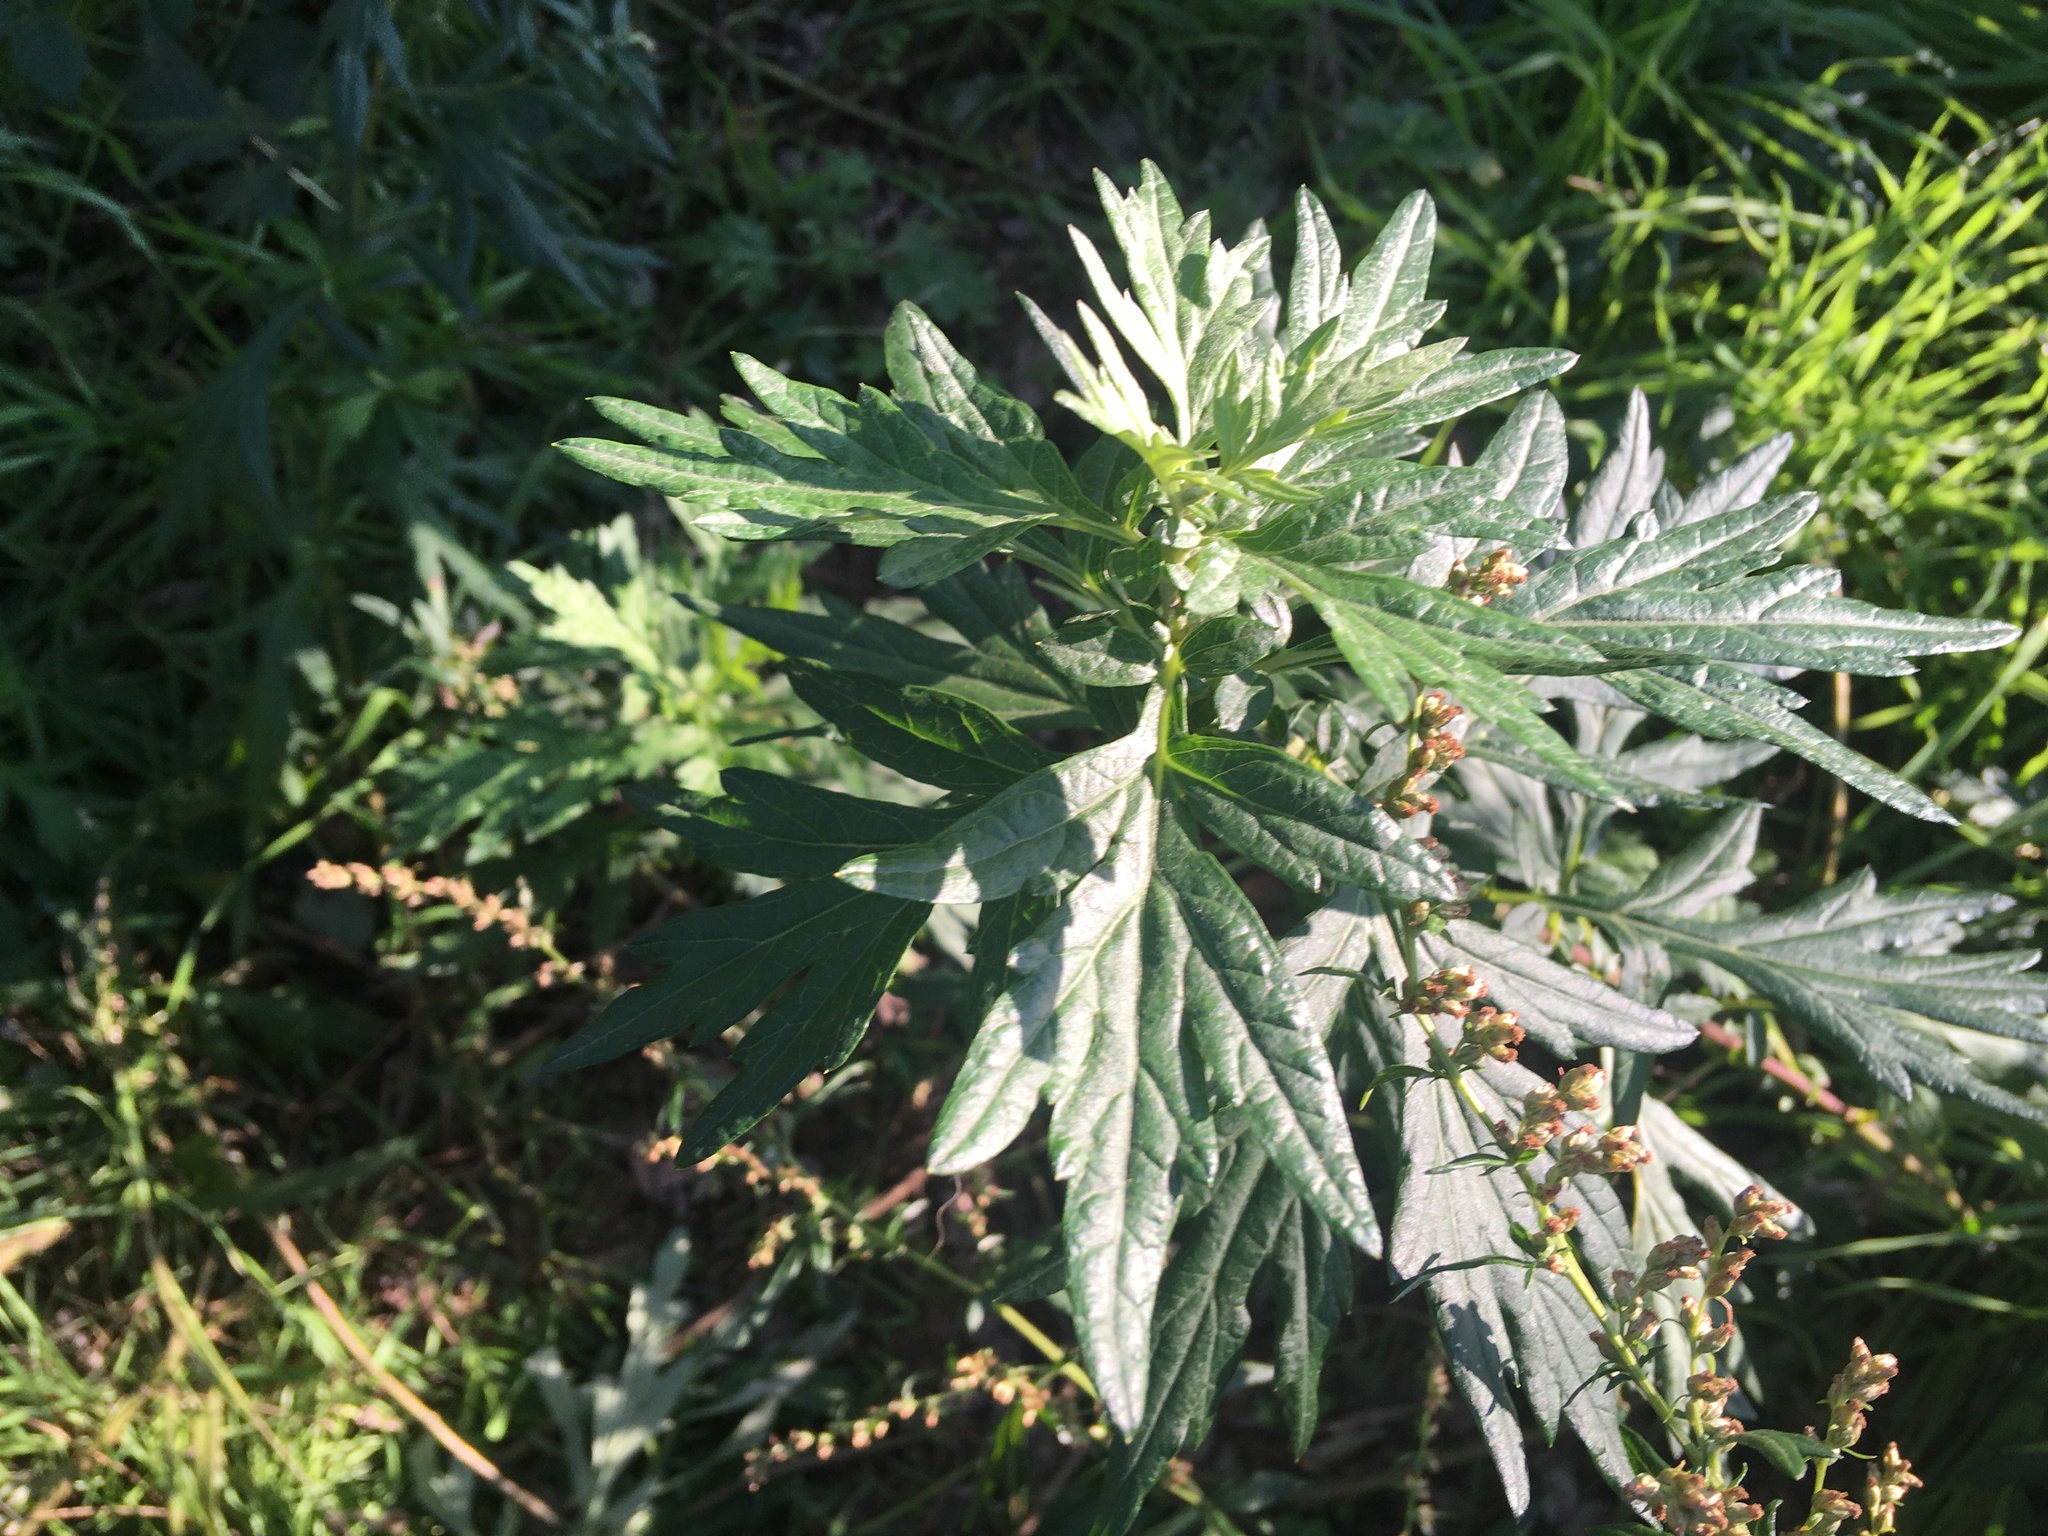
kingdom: Plantae
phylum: Tracheophyta
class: Magnoliopsida
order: Asterales
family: Asteraceae
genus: Artemisia
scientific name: Artemisia vulgaris
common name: Mugwort
